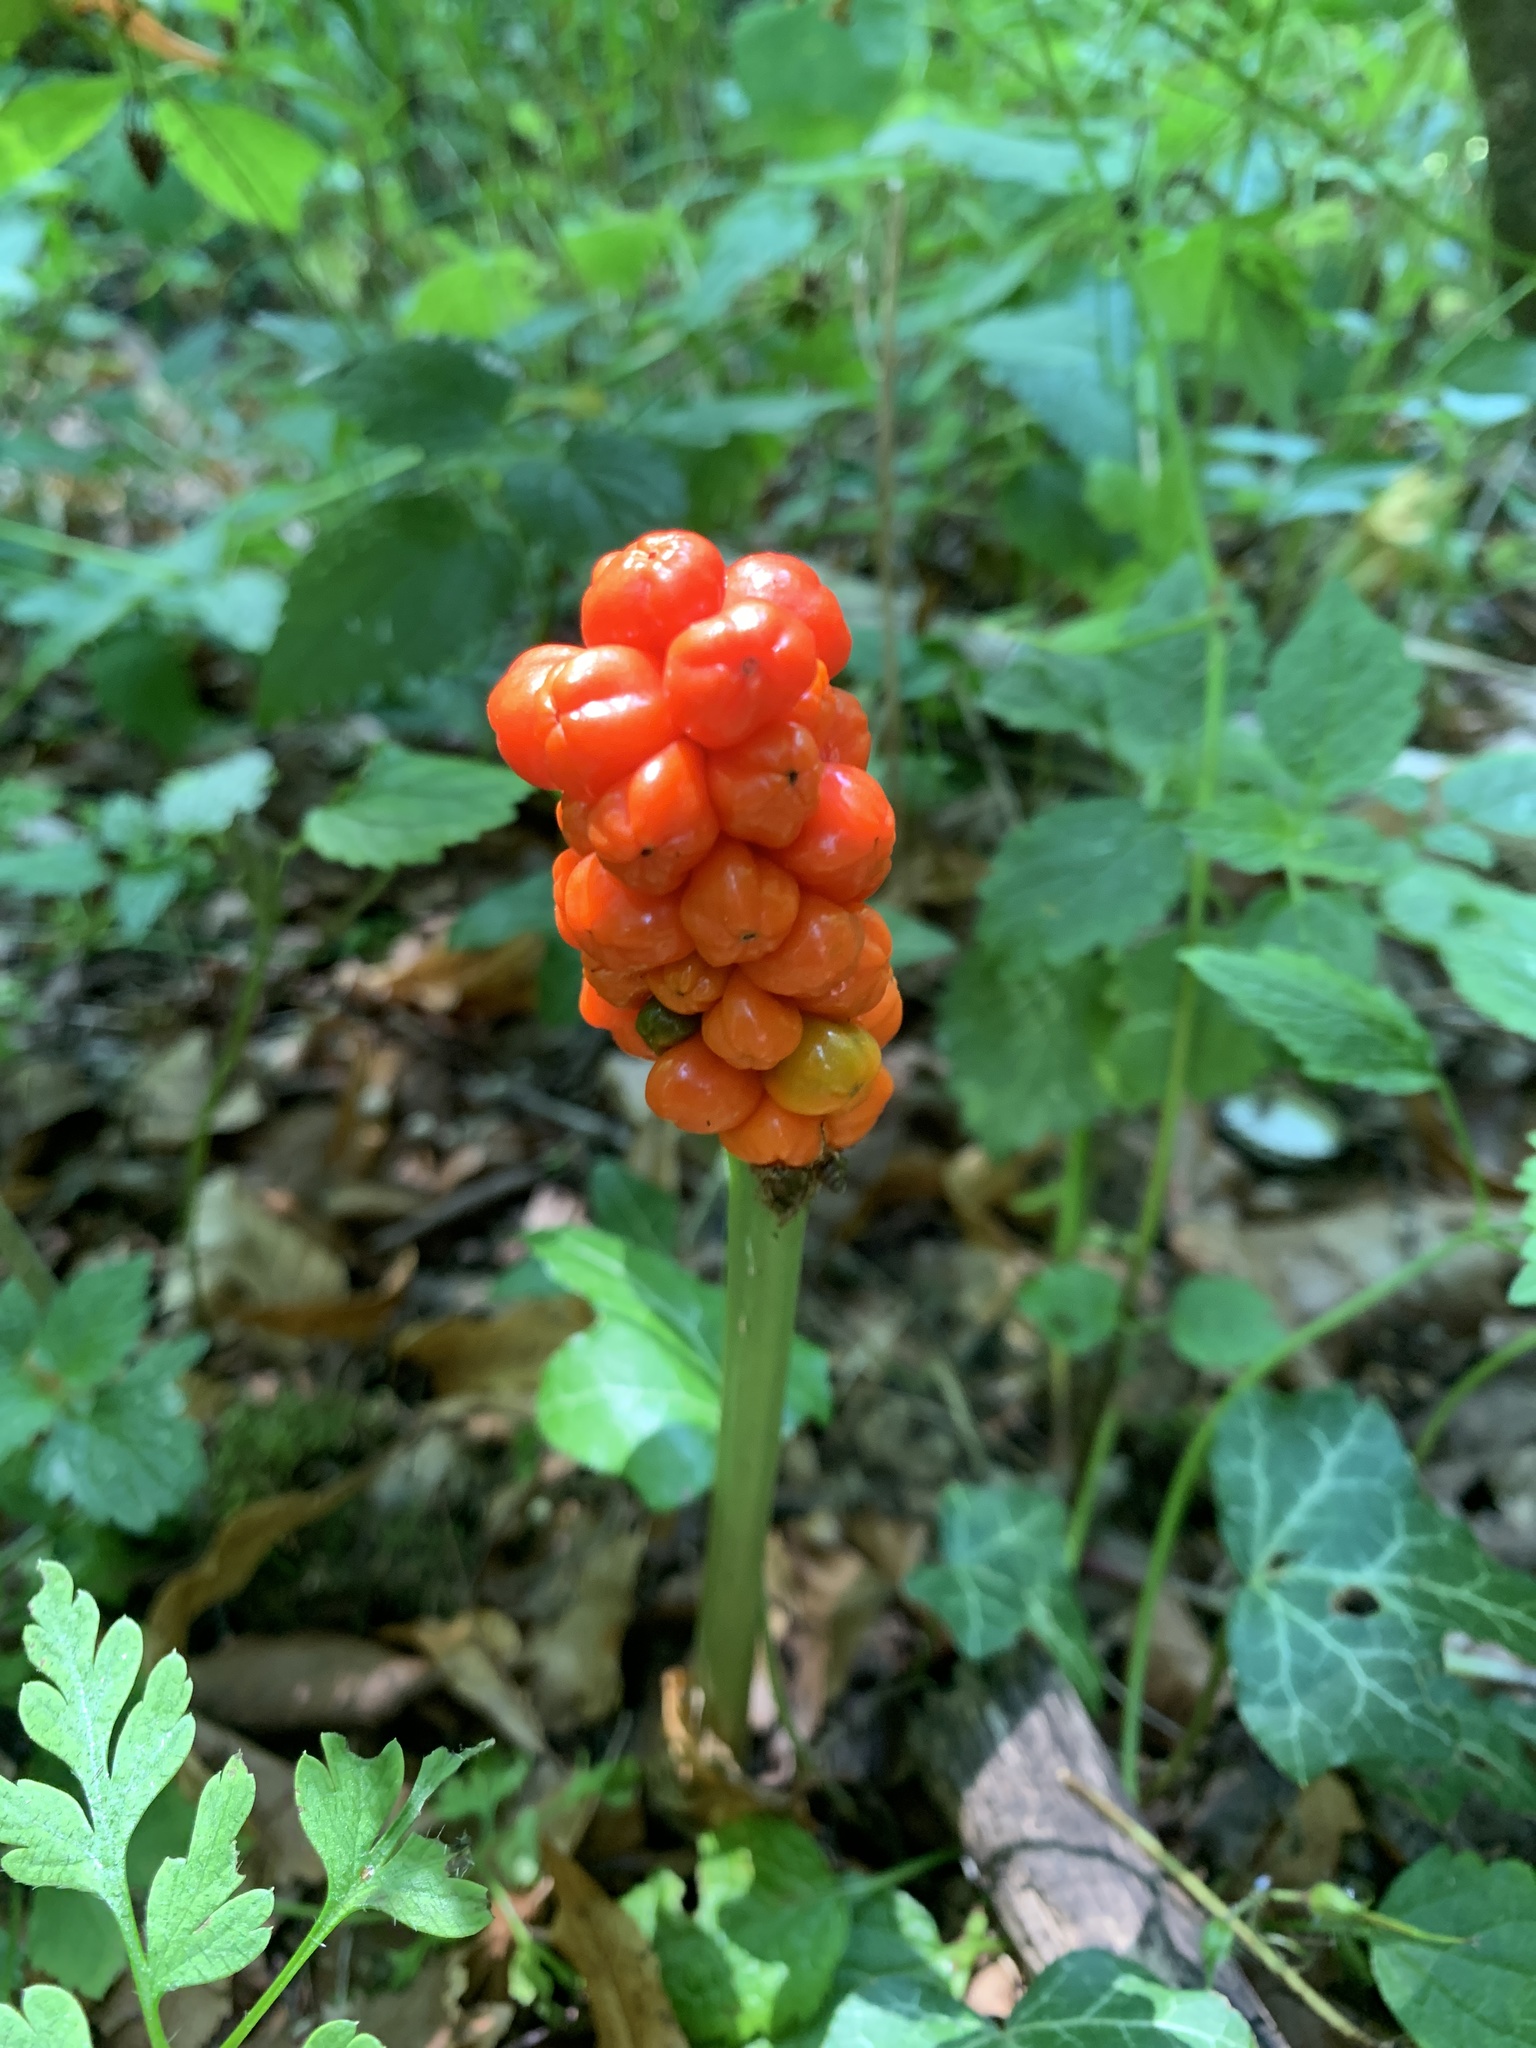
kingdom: Plantae
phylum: Tracheophyta
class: Liliopsida
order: Alismatales
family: Araceae
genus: Arum
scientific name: Arum maculatum
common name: Lords-and-ladies
